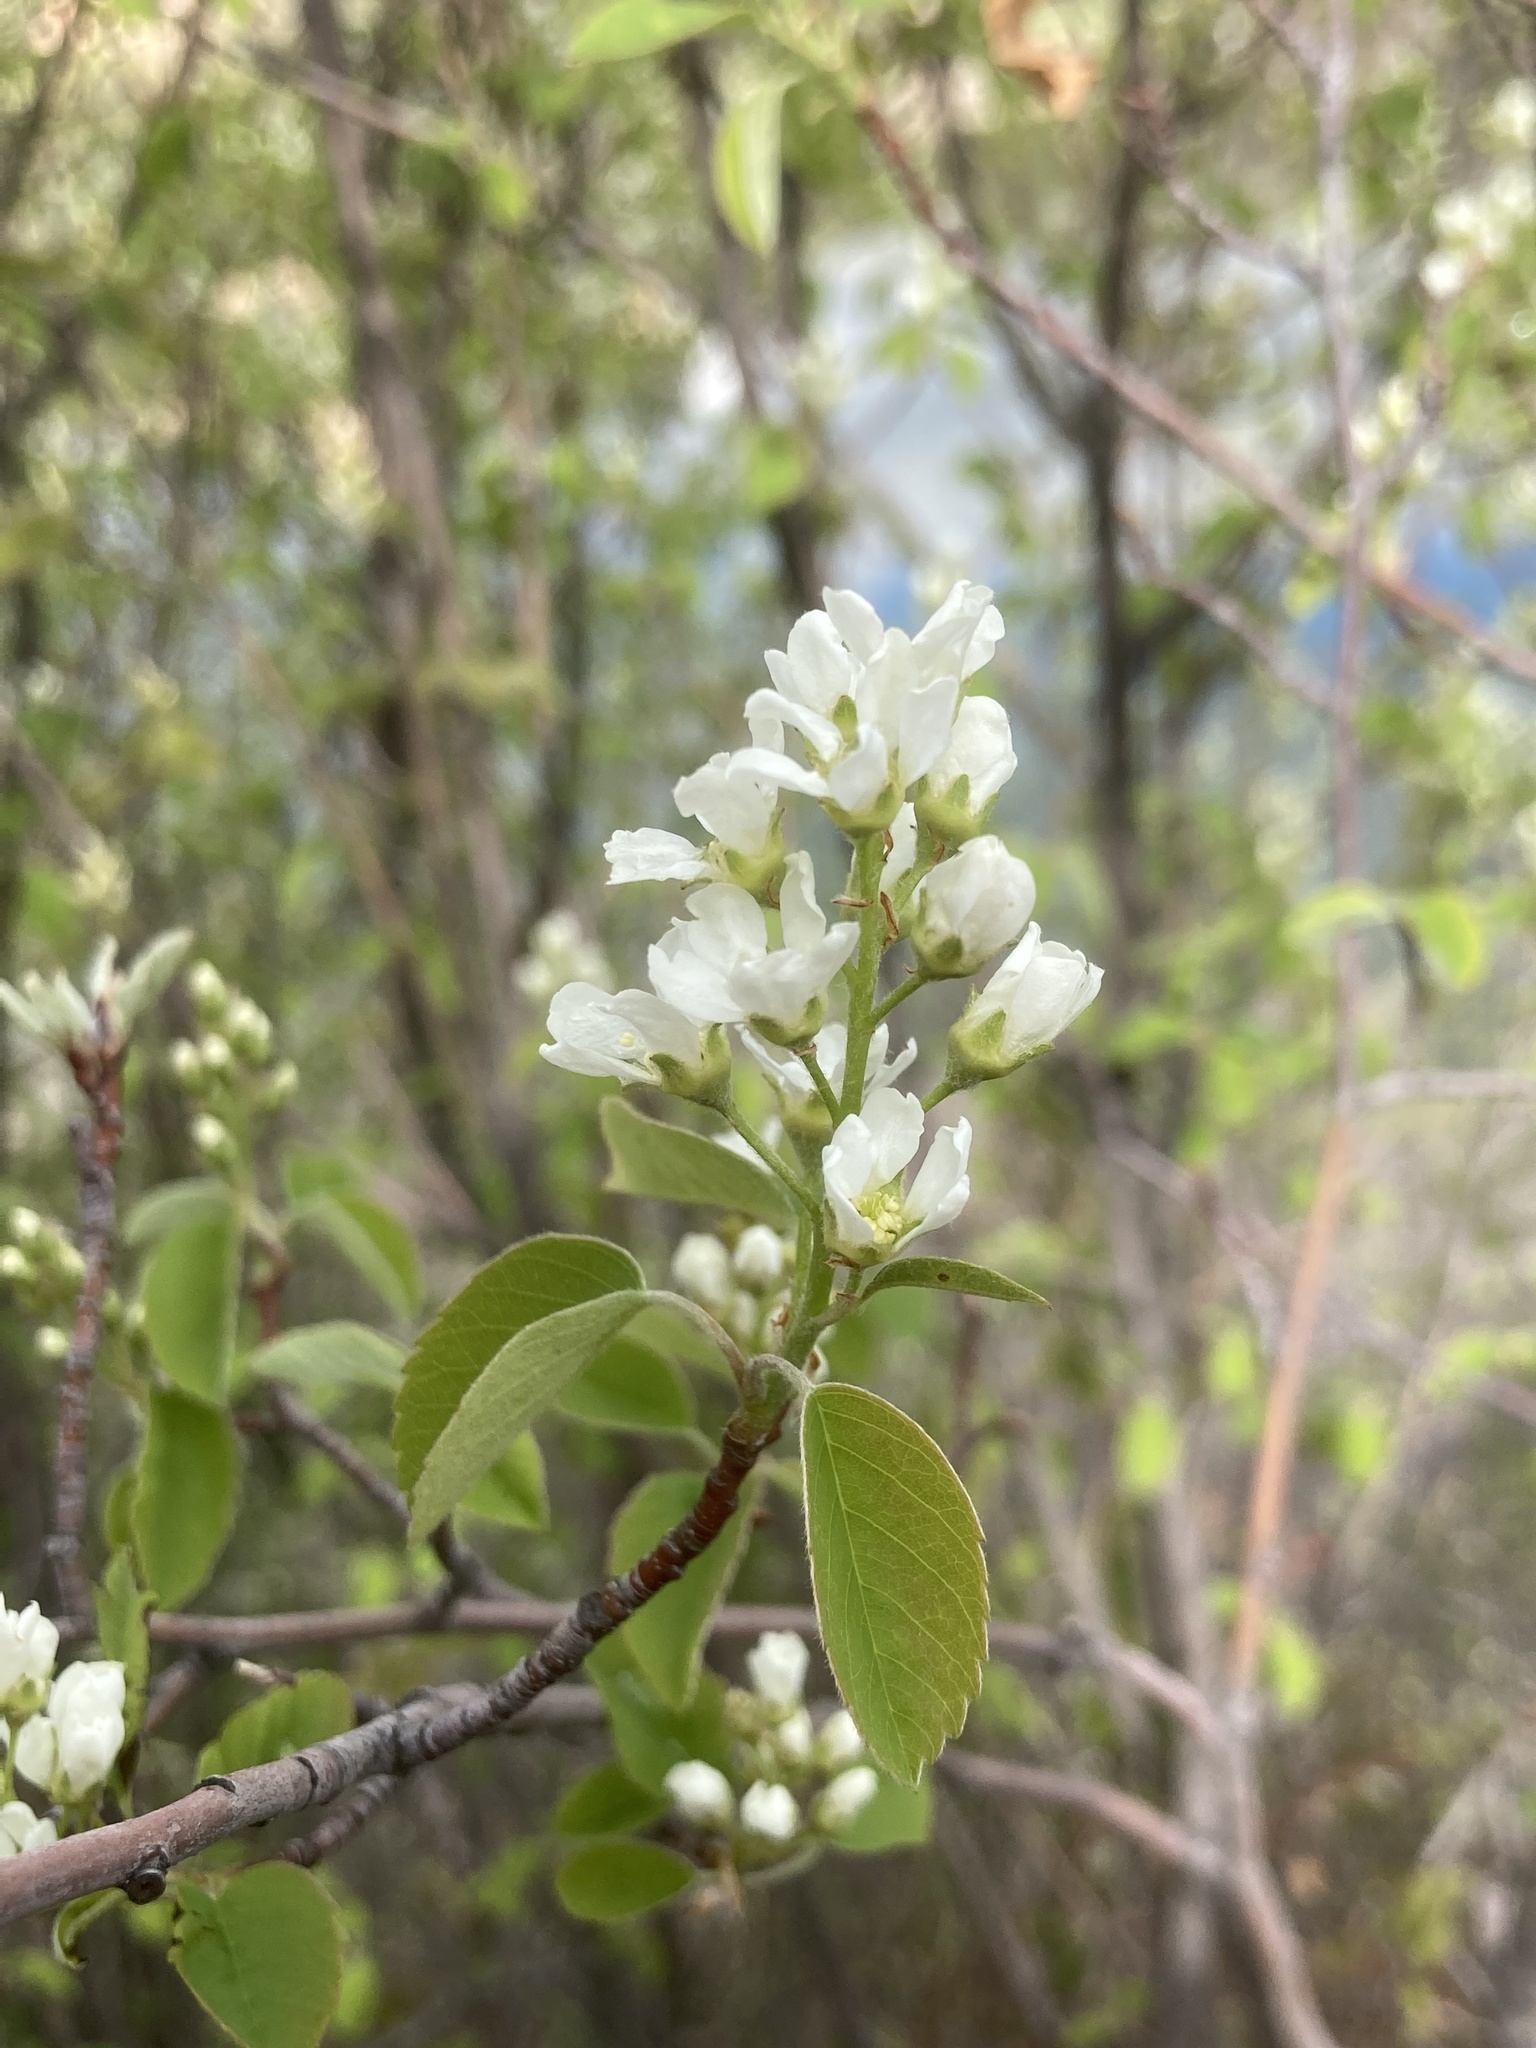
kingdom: Plantae
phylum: Tracheophyta
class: Magnoliopsida
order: Rosales
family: Rosaceae
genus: Amelanchier
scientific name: Amelanchier alnifolia
